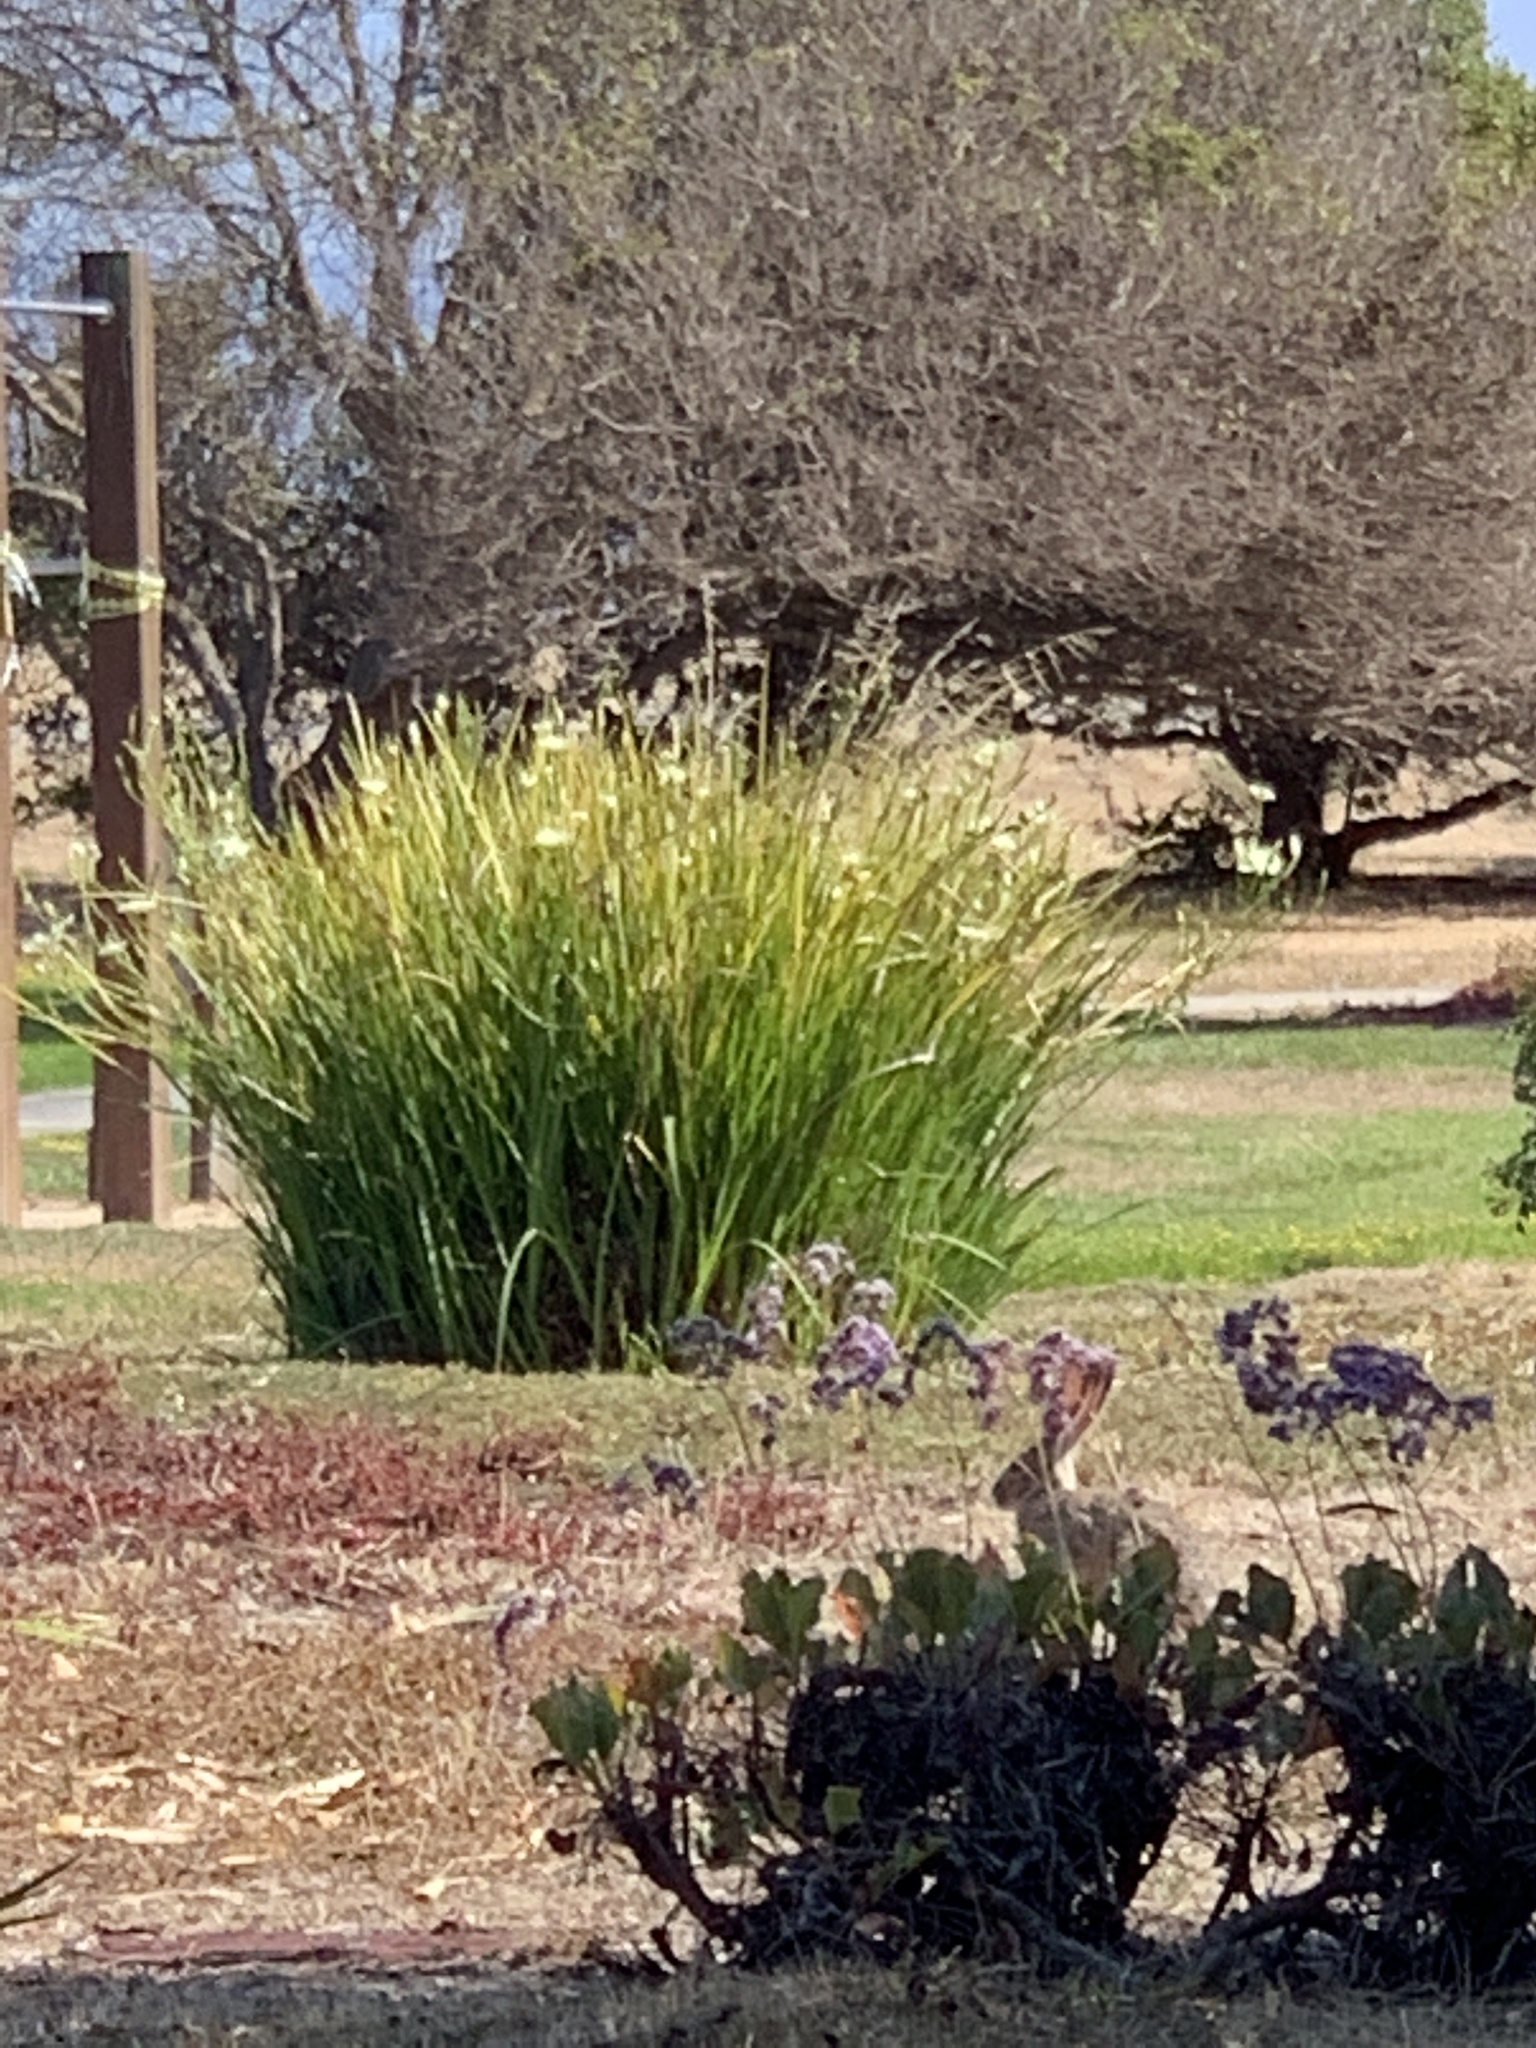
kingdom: Animalia
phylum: Chordata
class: Mammalia
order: Lagomorpha
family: Leporidae
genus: Lepus
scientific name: Lepus californicus
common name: Black-tailed jackrabbit
